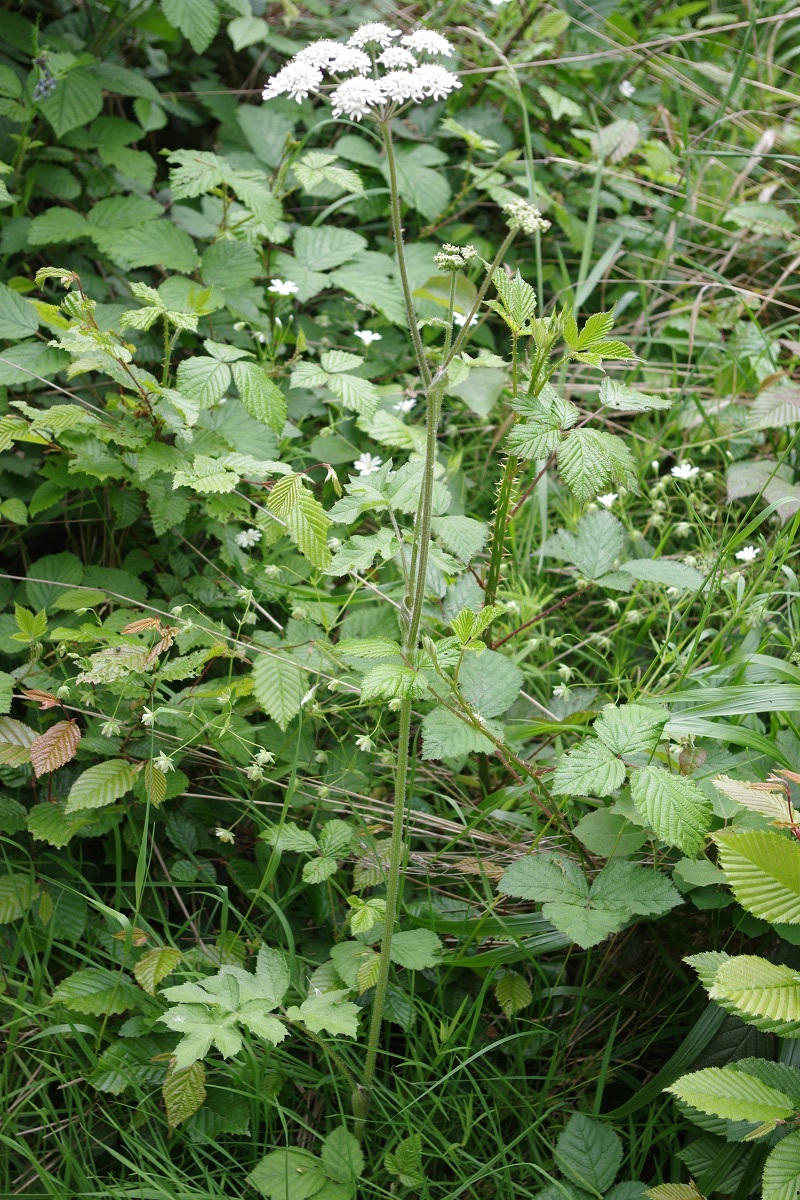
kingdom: Plantae
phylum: Tracheophyta
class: Magnoliopsida
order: Apiales
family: Apiaceae
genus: Heracleum
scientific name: Heracleum sphondylium
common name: Hogweed
